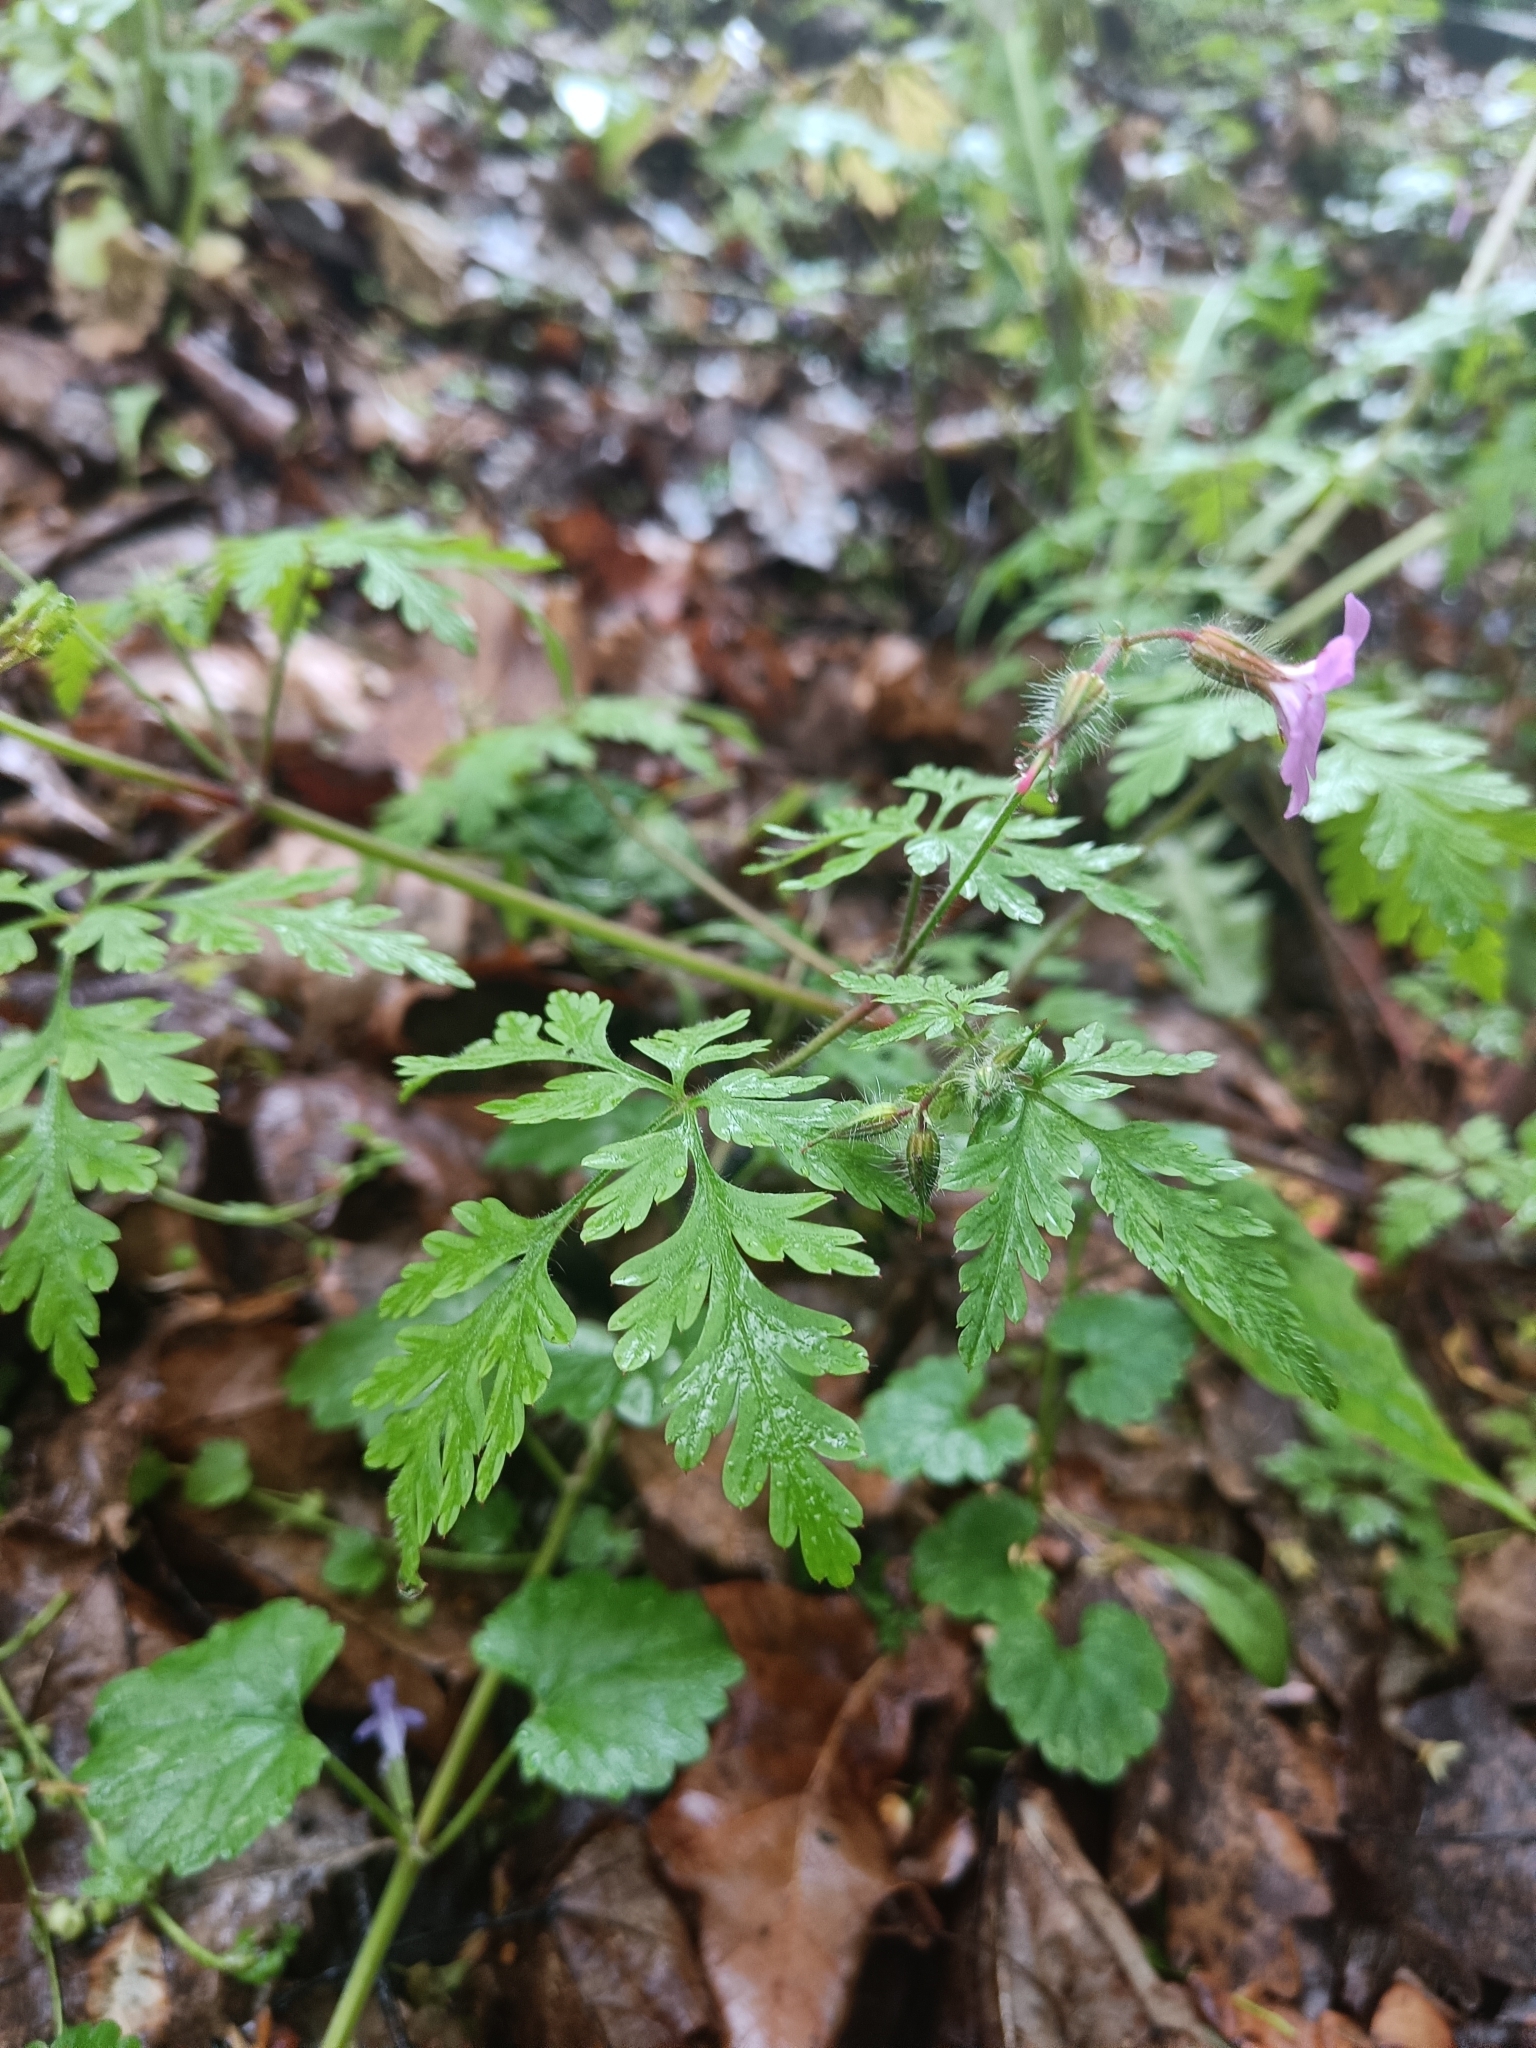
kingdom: Plantae
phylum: Tracheophyta
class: Magnoliopsida
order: Geraniales
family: Geraniaceae
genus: Geranium
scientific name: Geranium robertianum
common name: Herb-robert
